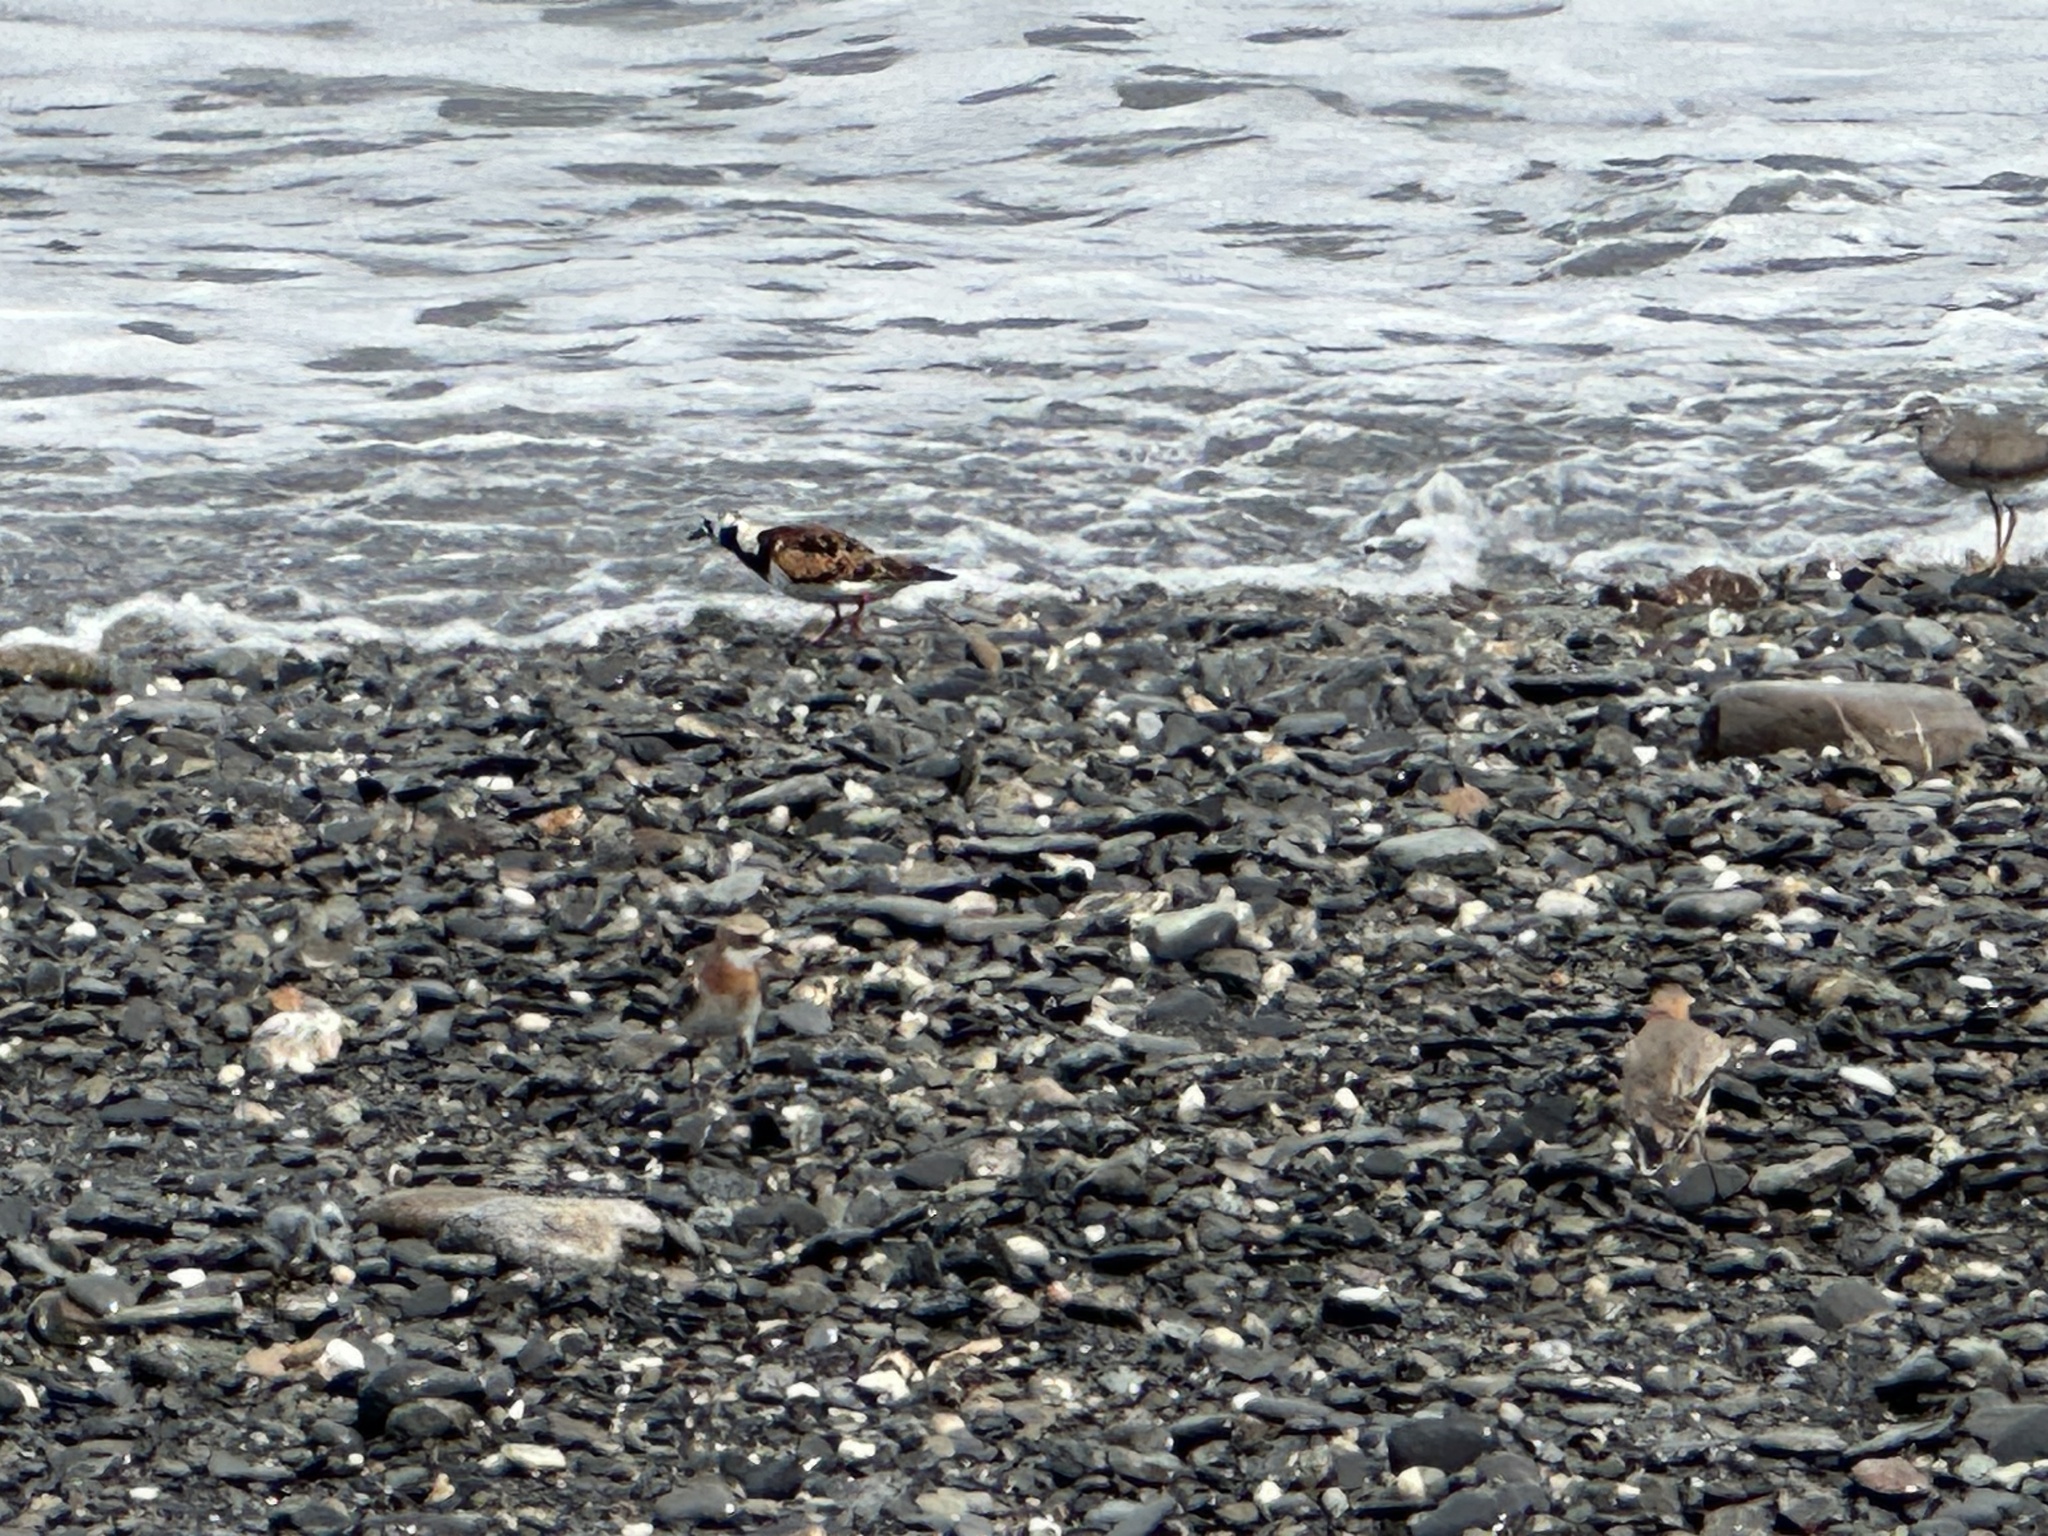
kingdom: Animalia
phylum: Chordata
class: Aves
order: Charadriiformes
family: Scolopacidae
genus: Arenaria
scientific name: Arenaria interpres
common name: Ruddy turnstone
